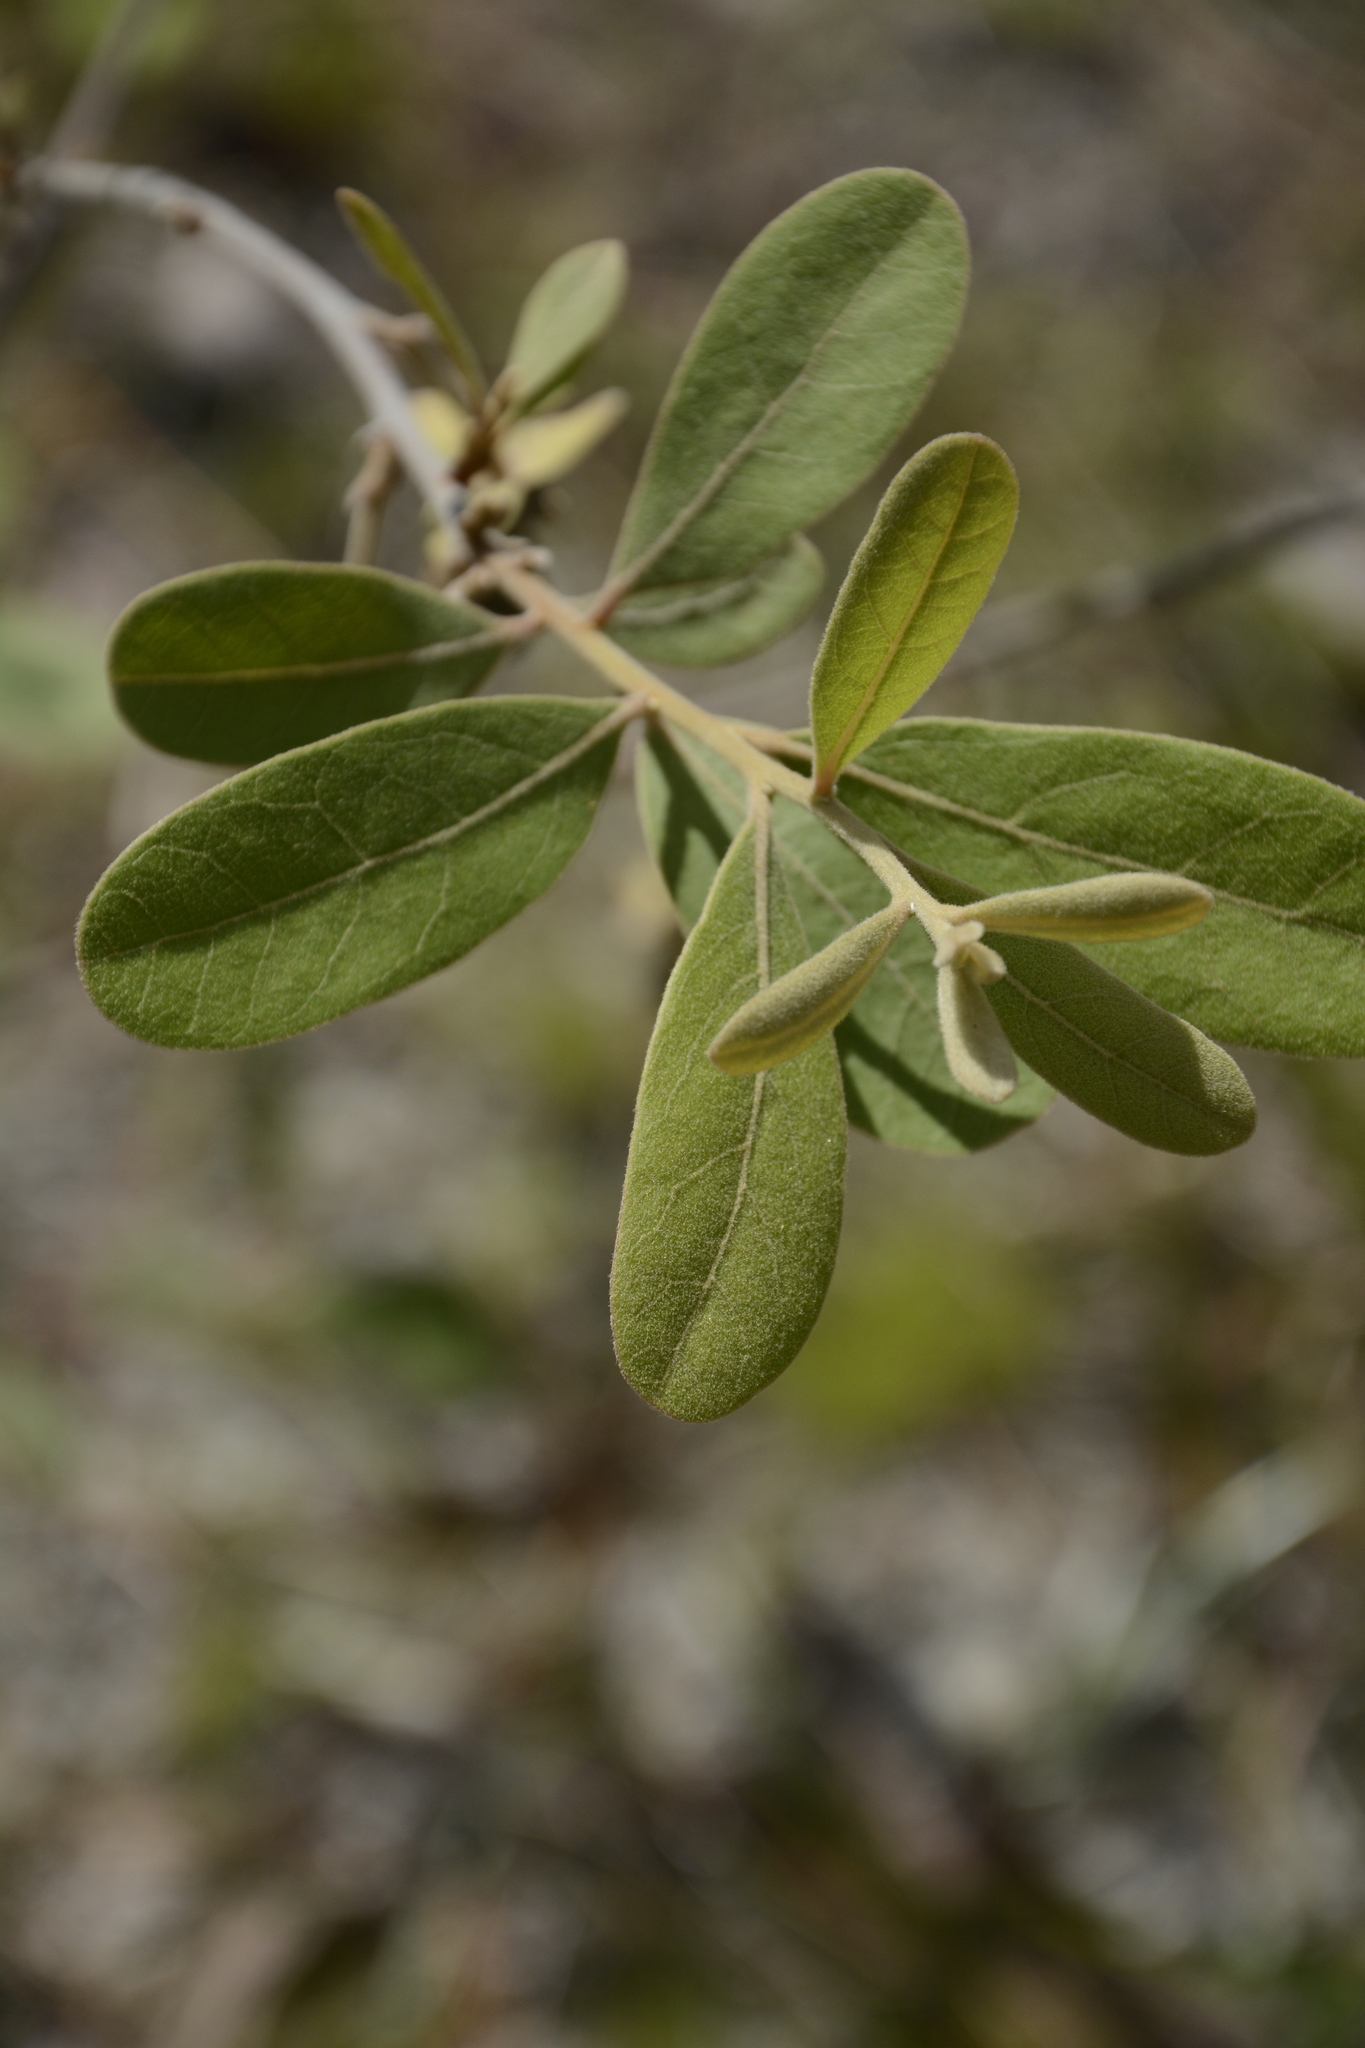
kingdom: Plantae
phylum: Tracheophyta
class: Magnoliopsida
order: Magnoliales
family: Annonaceae
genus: Asimina
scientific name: Asimina speciosa
